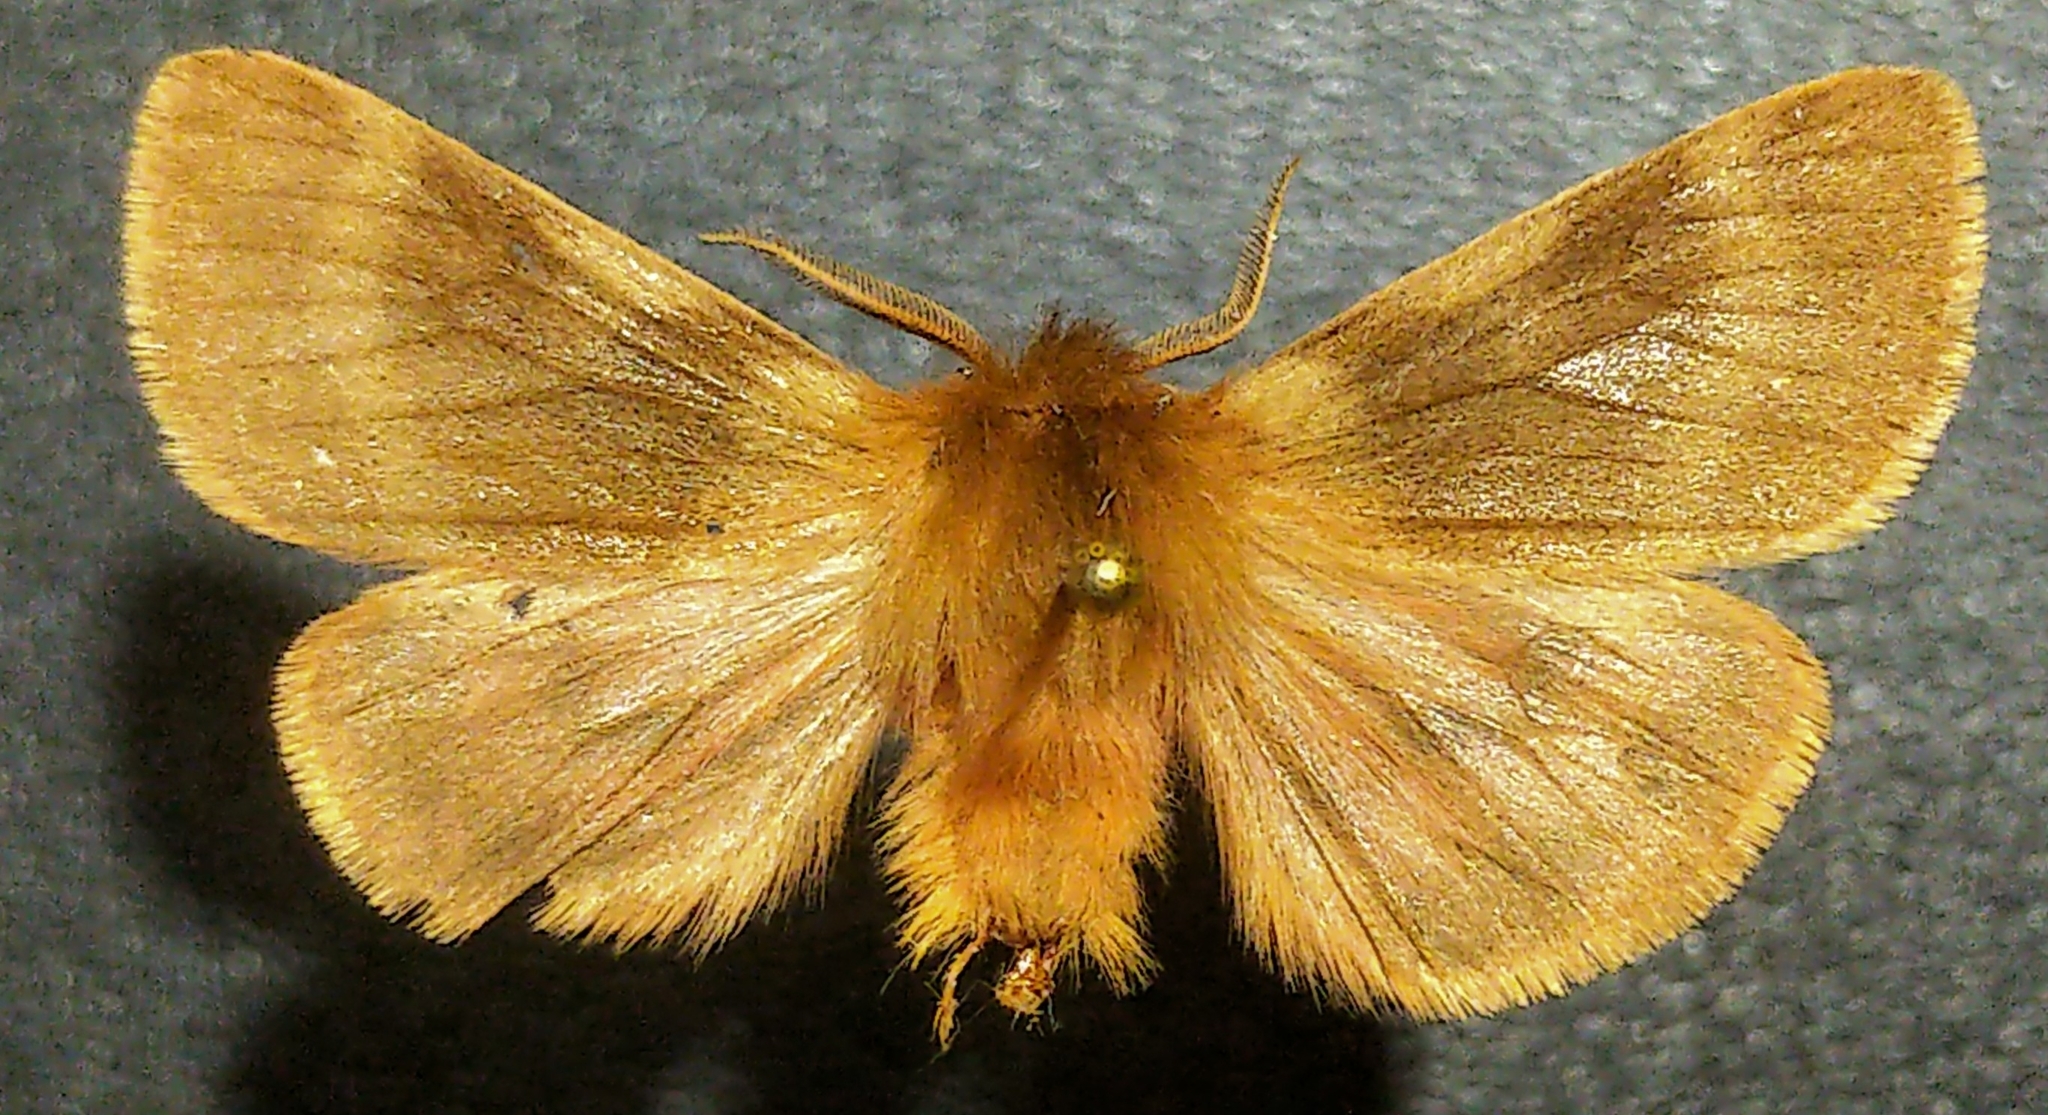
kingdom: Animalia
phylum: Arthropoda
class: Insecta
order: Lepidoptera
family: Erebidae
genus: Chelis
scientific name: Chelis beanii
